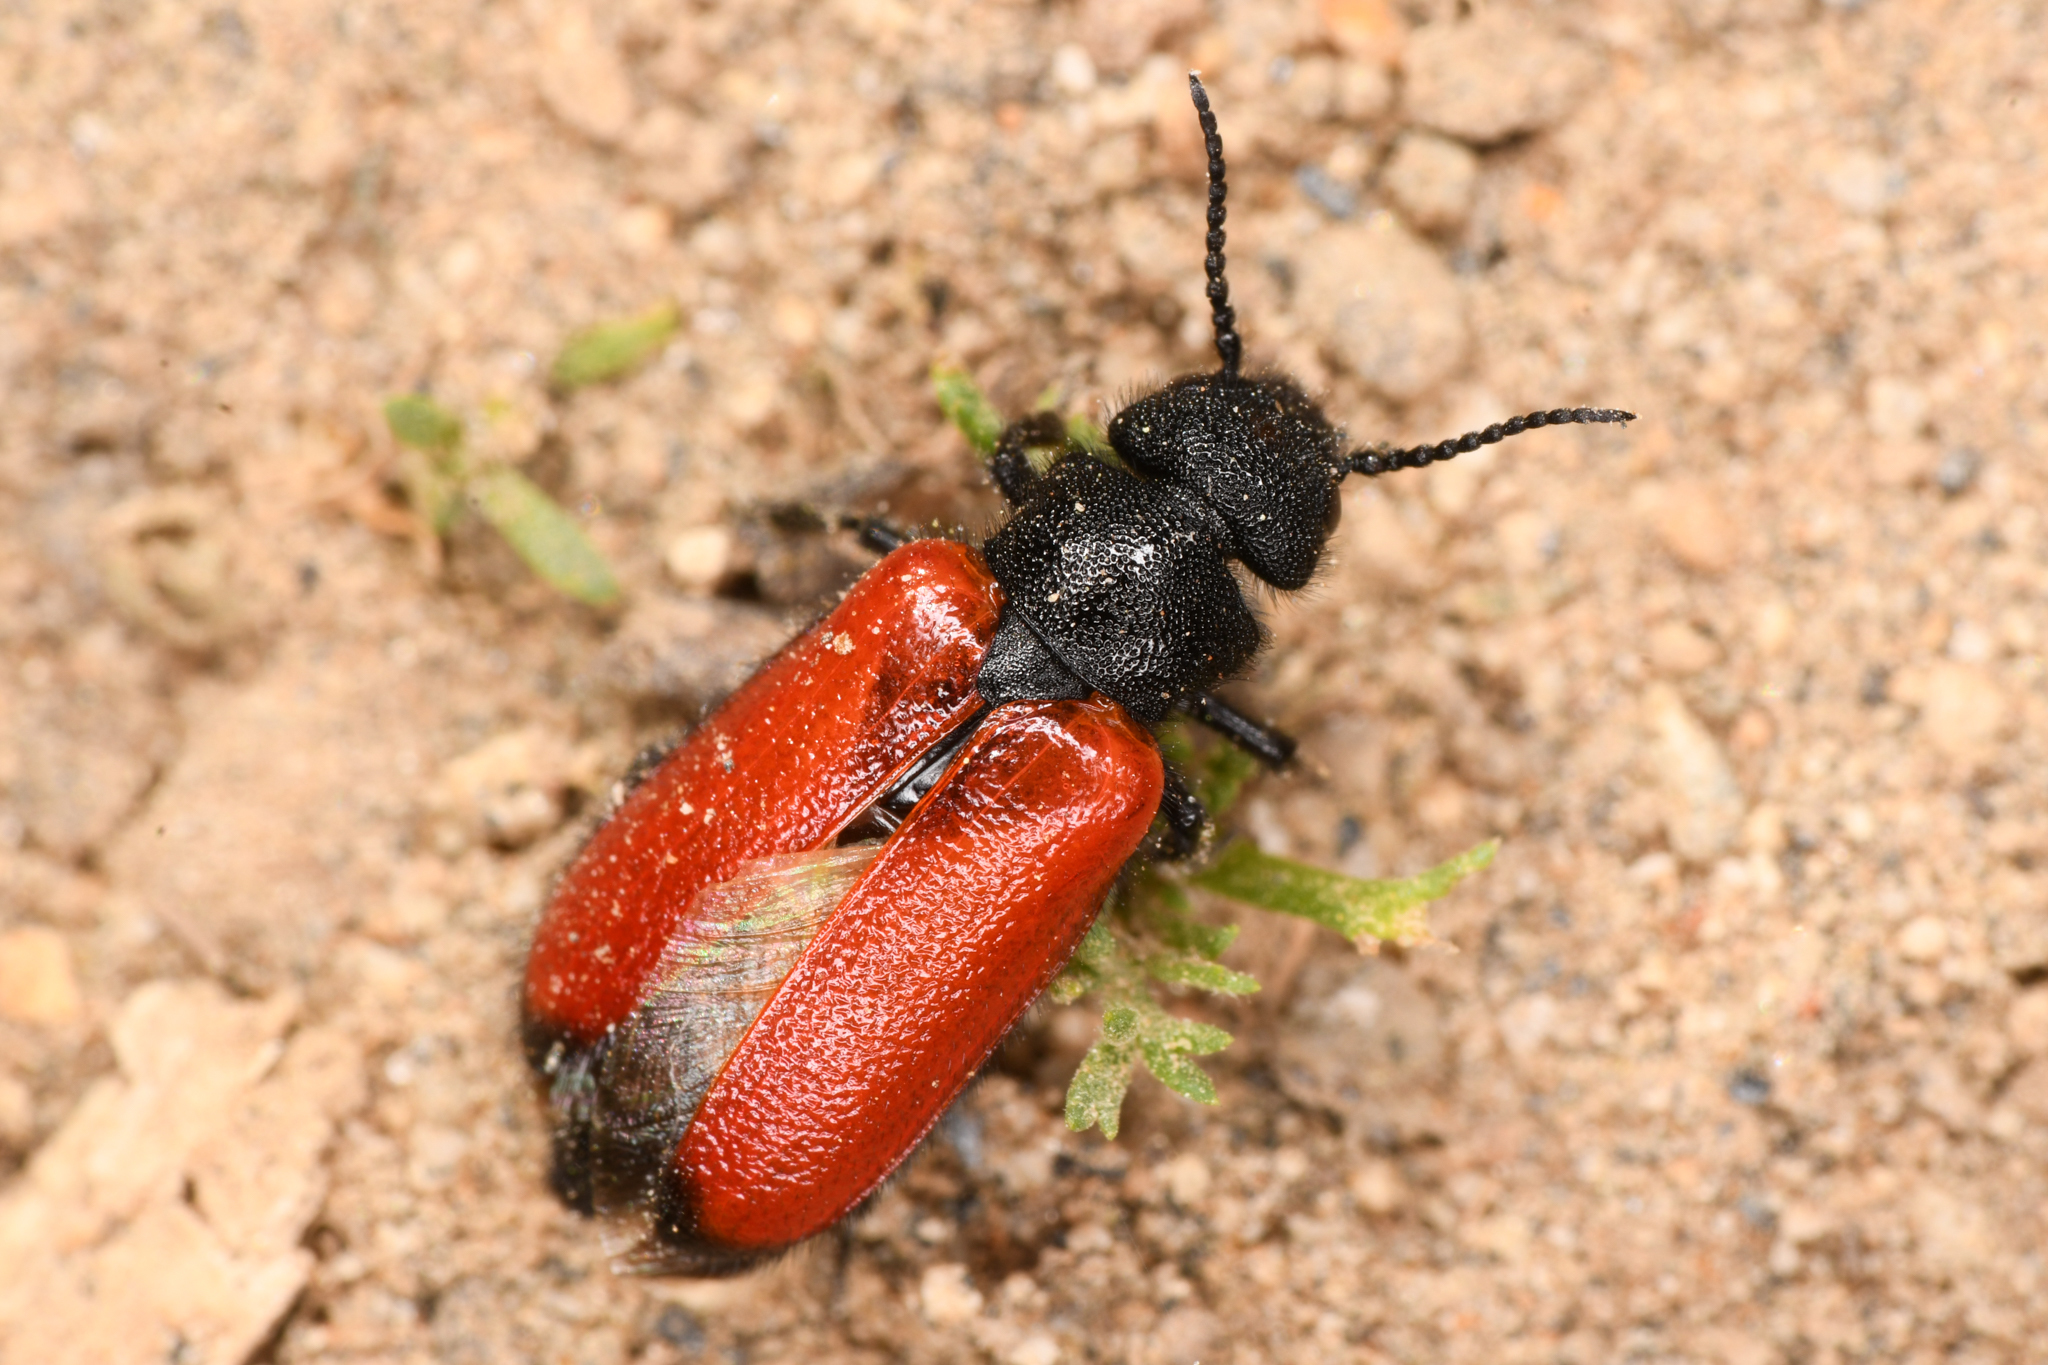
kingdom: Animalia
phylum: Arthropoda
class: Insecta
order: Coleoptera
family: Meloidae
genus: Tricrania
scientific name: Tricrania stansburii
